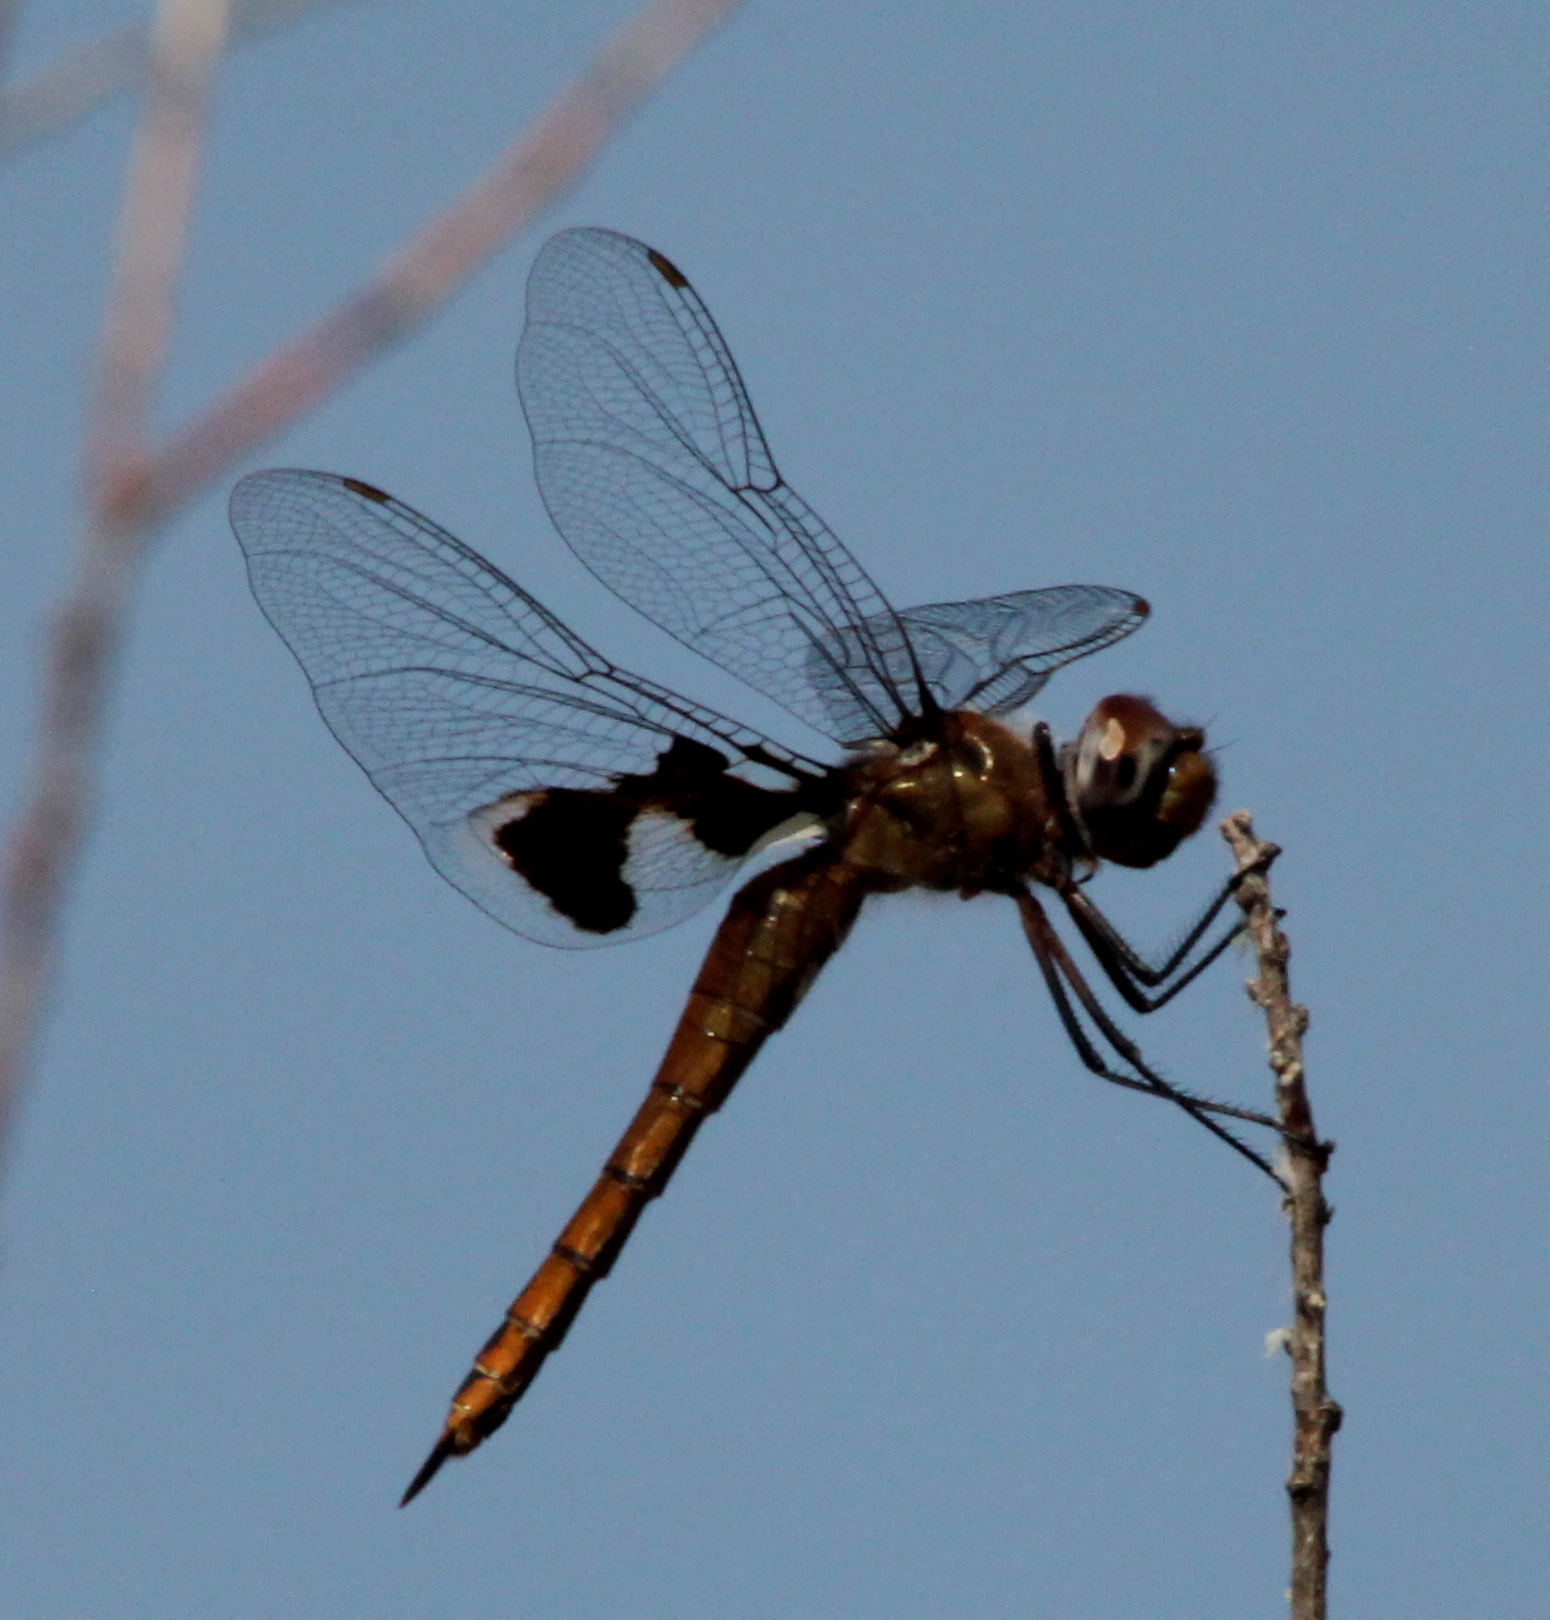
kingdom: Animalia
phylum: Arthropoda
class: Insecta
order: Odonata
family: Libellulidae
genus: Tramea
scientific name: Tramea onusta
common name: Red saddlebags
